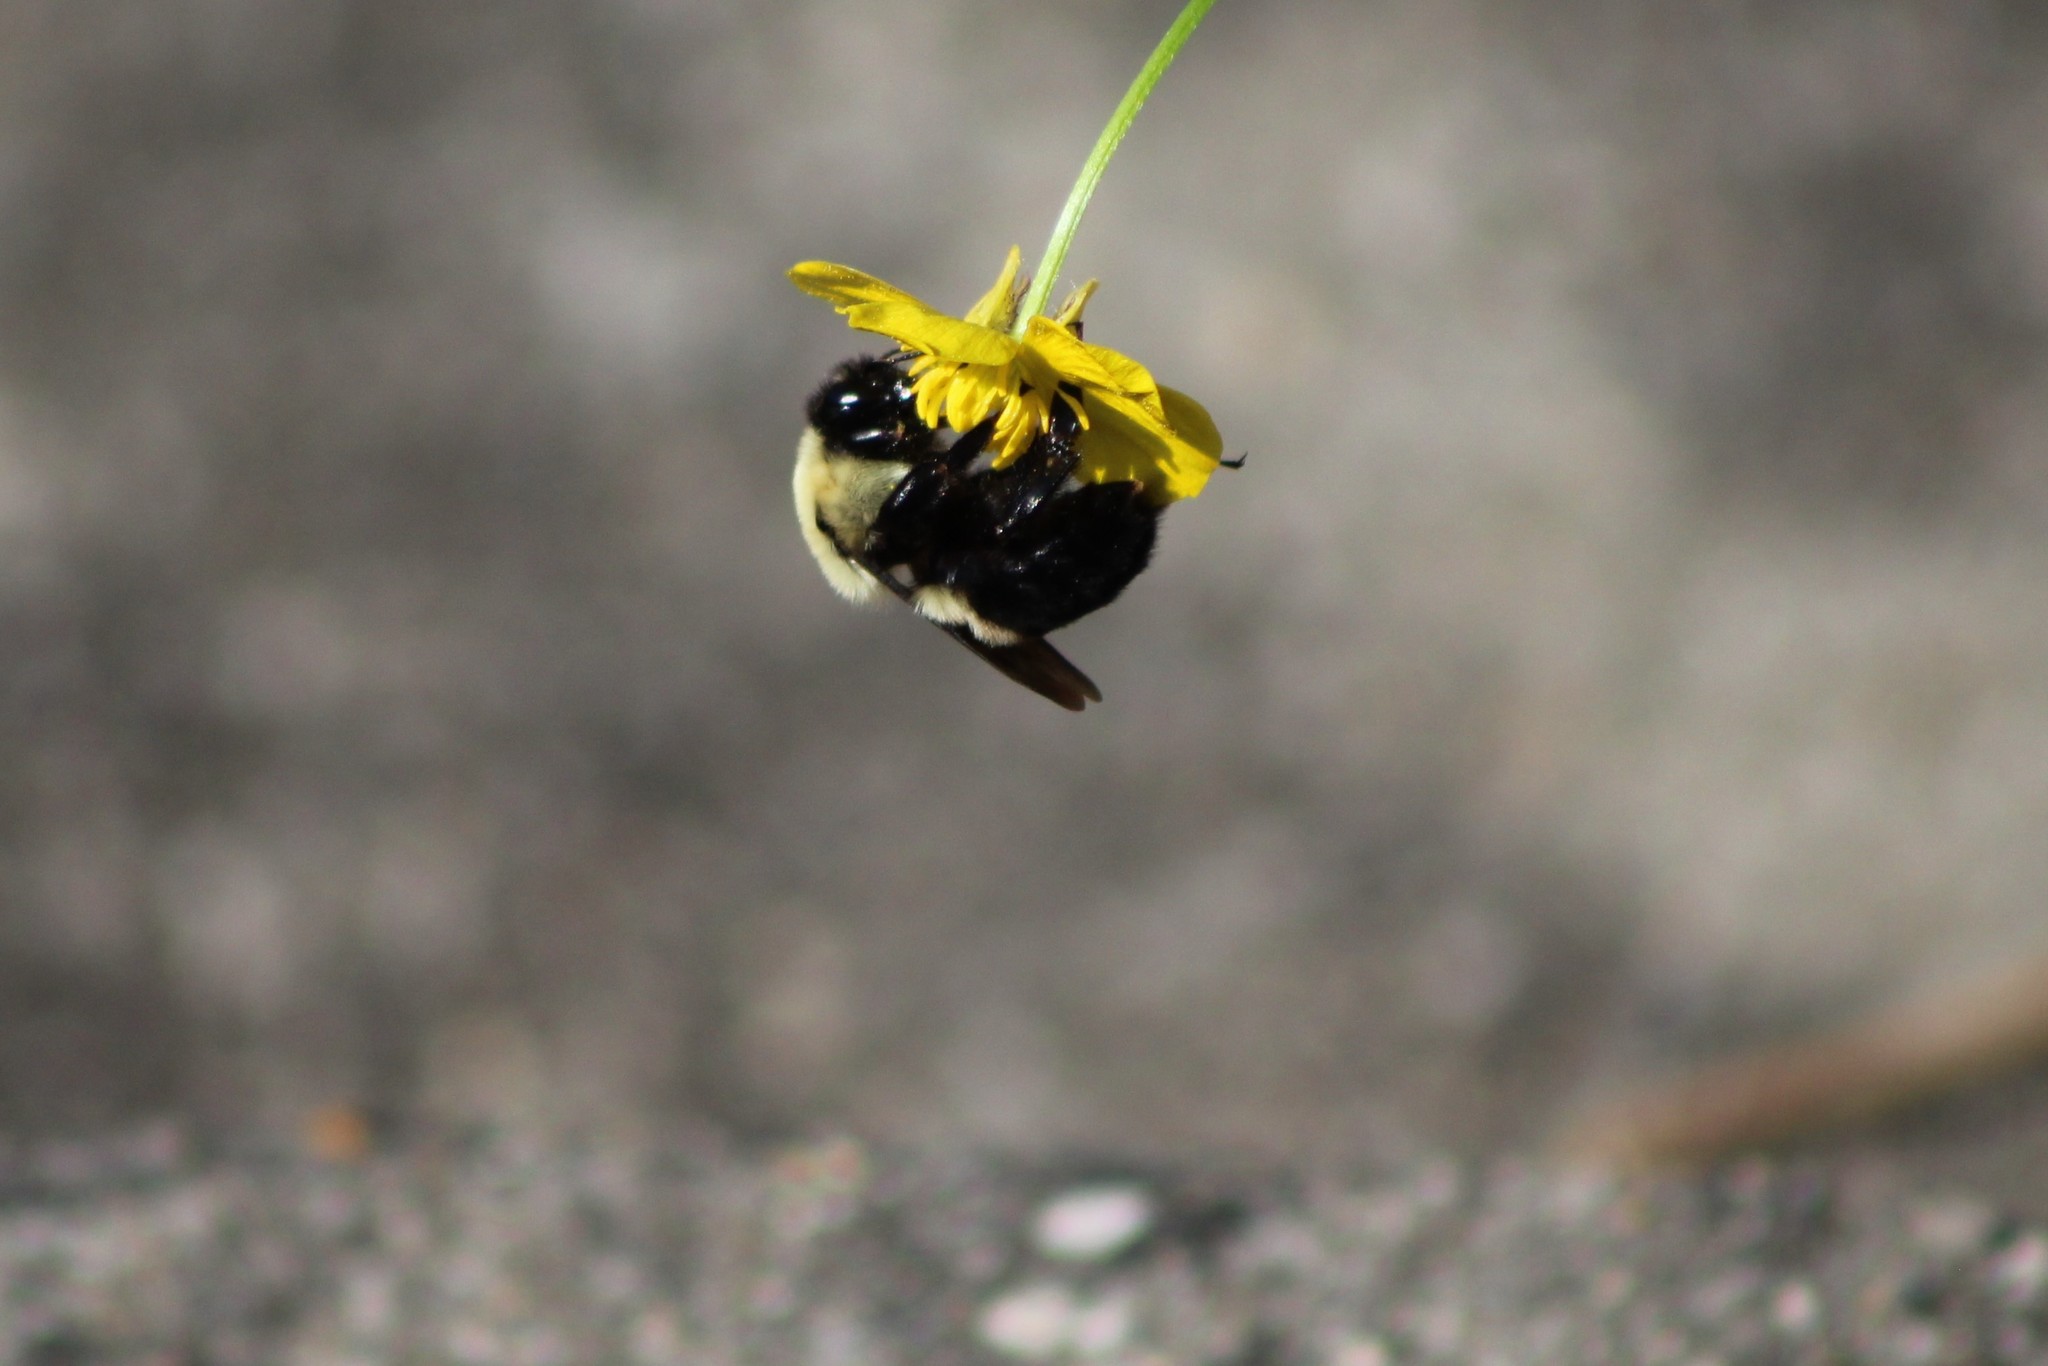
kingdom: Animalia
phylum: Arthropoda
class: Insecta
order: Hymenoptera
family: Apidae
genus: Bombus
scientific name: Bombus griseocollis
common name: Brown-belted bumble bee
